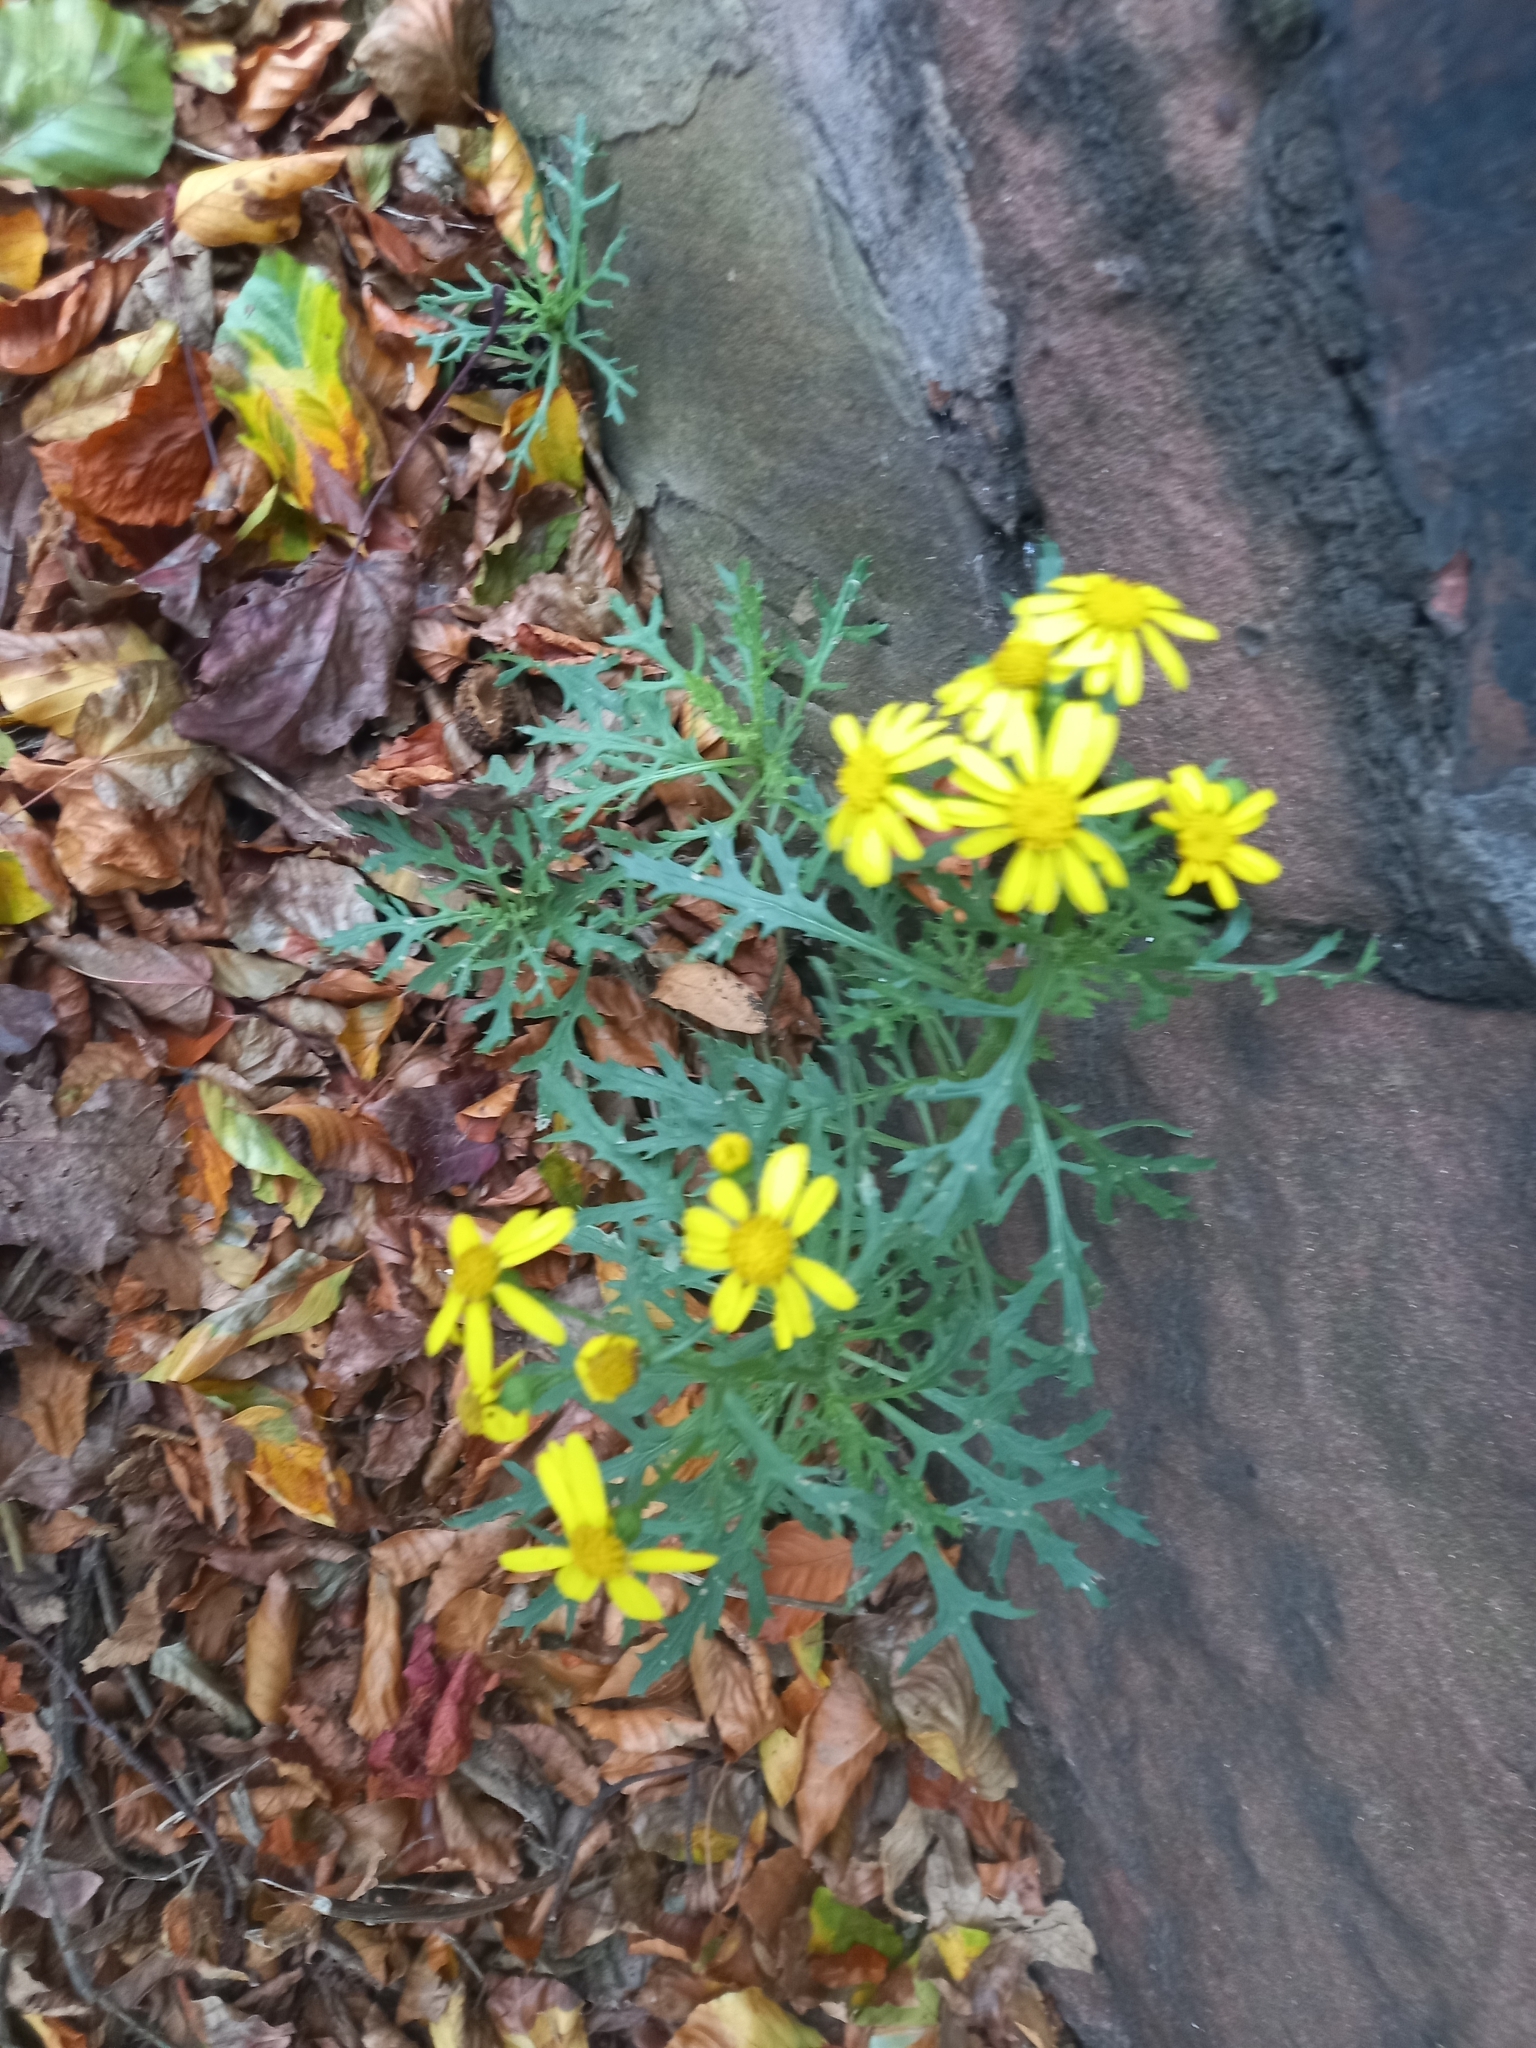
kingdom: Plantae
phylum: Tracheophyta
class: Magnoliopsida
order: Asterales
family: Asteraceae
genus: Senecio
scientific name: Senecio squalidus
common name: Oxford ragwort
